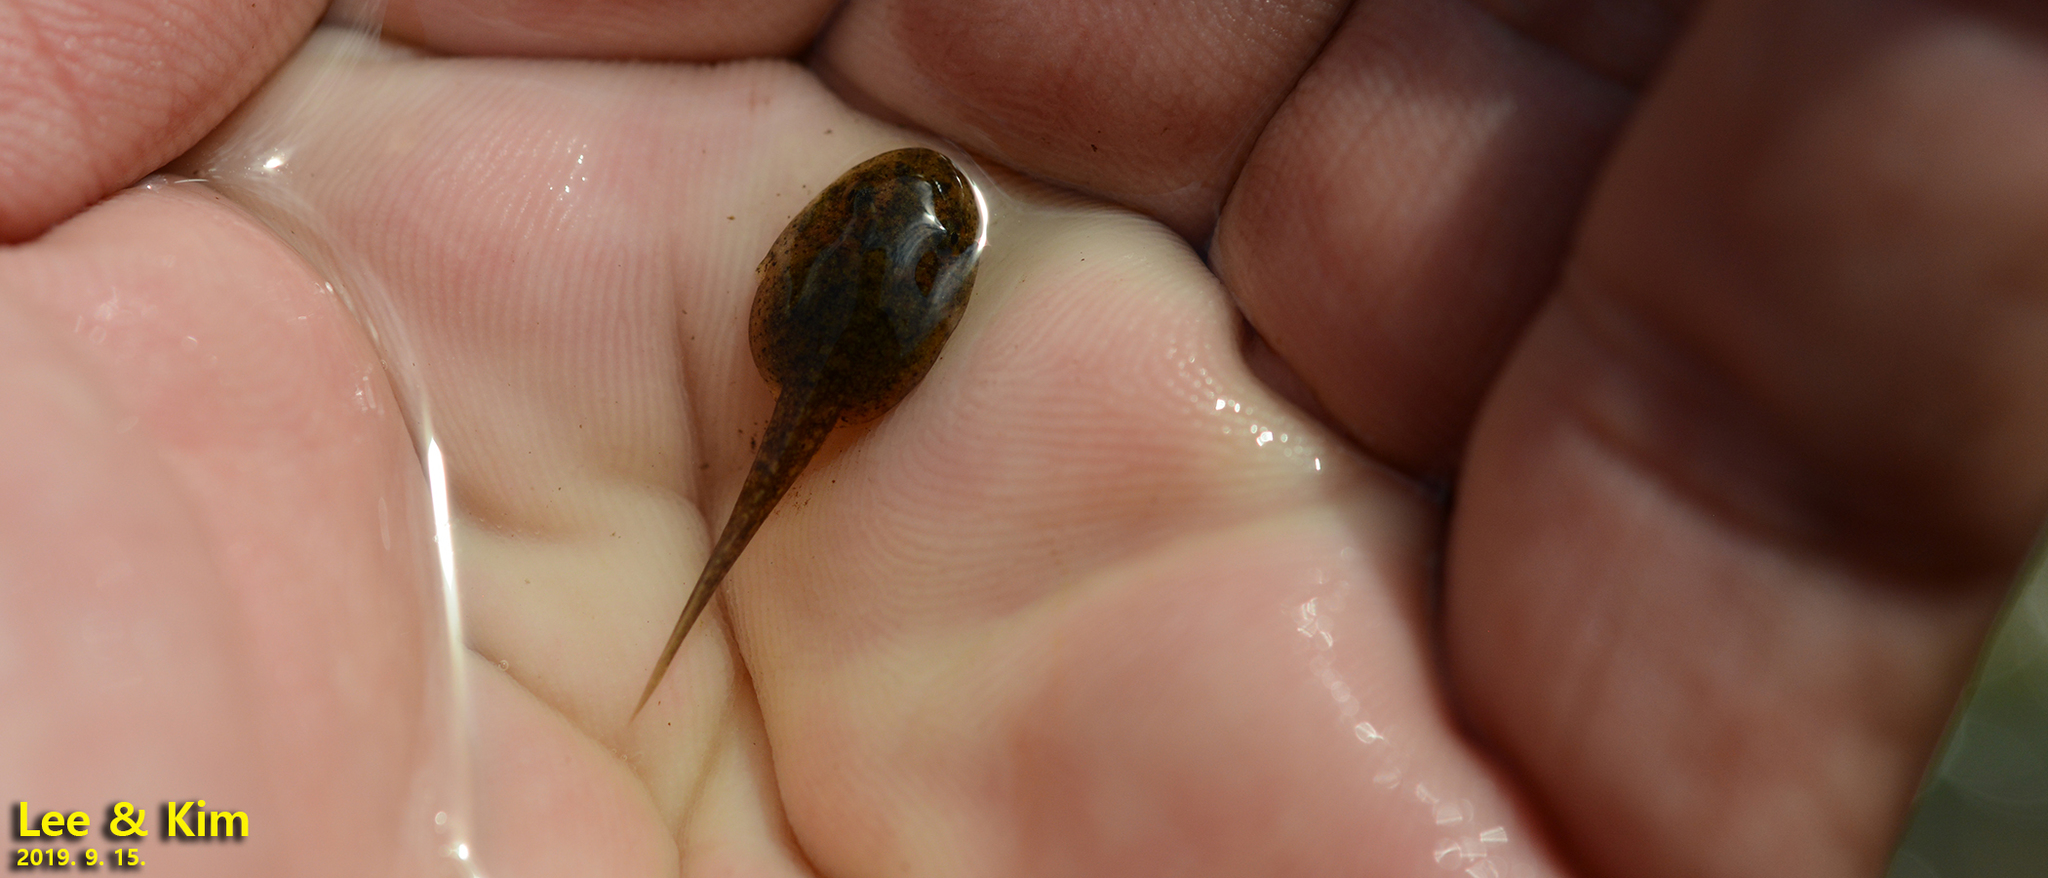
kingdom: Animalia
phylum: Chordata
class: Amphibia
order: Anura
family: Ranidae
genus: Glandirana
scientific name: Glandirana emeljanovi
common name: Northeast china rough-skinned frog
